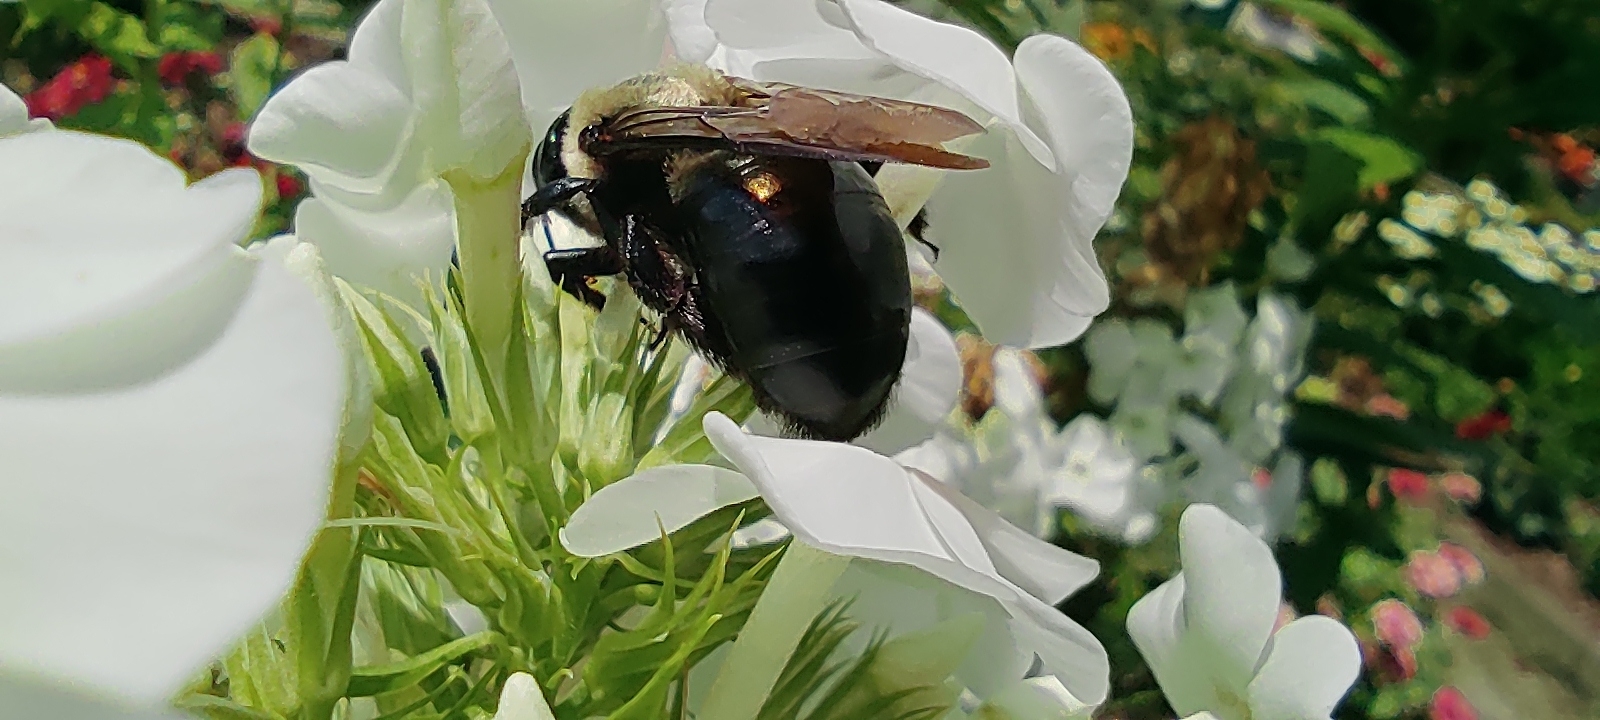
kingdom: Animalia
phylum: Arthropoda
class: Insecta
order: Hymenoptera
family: Apidae
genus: Xylocopa
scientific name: Xylocopa virginica
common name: Carpenter bee
